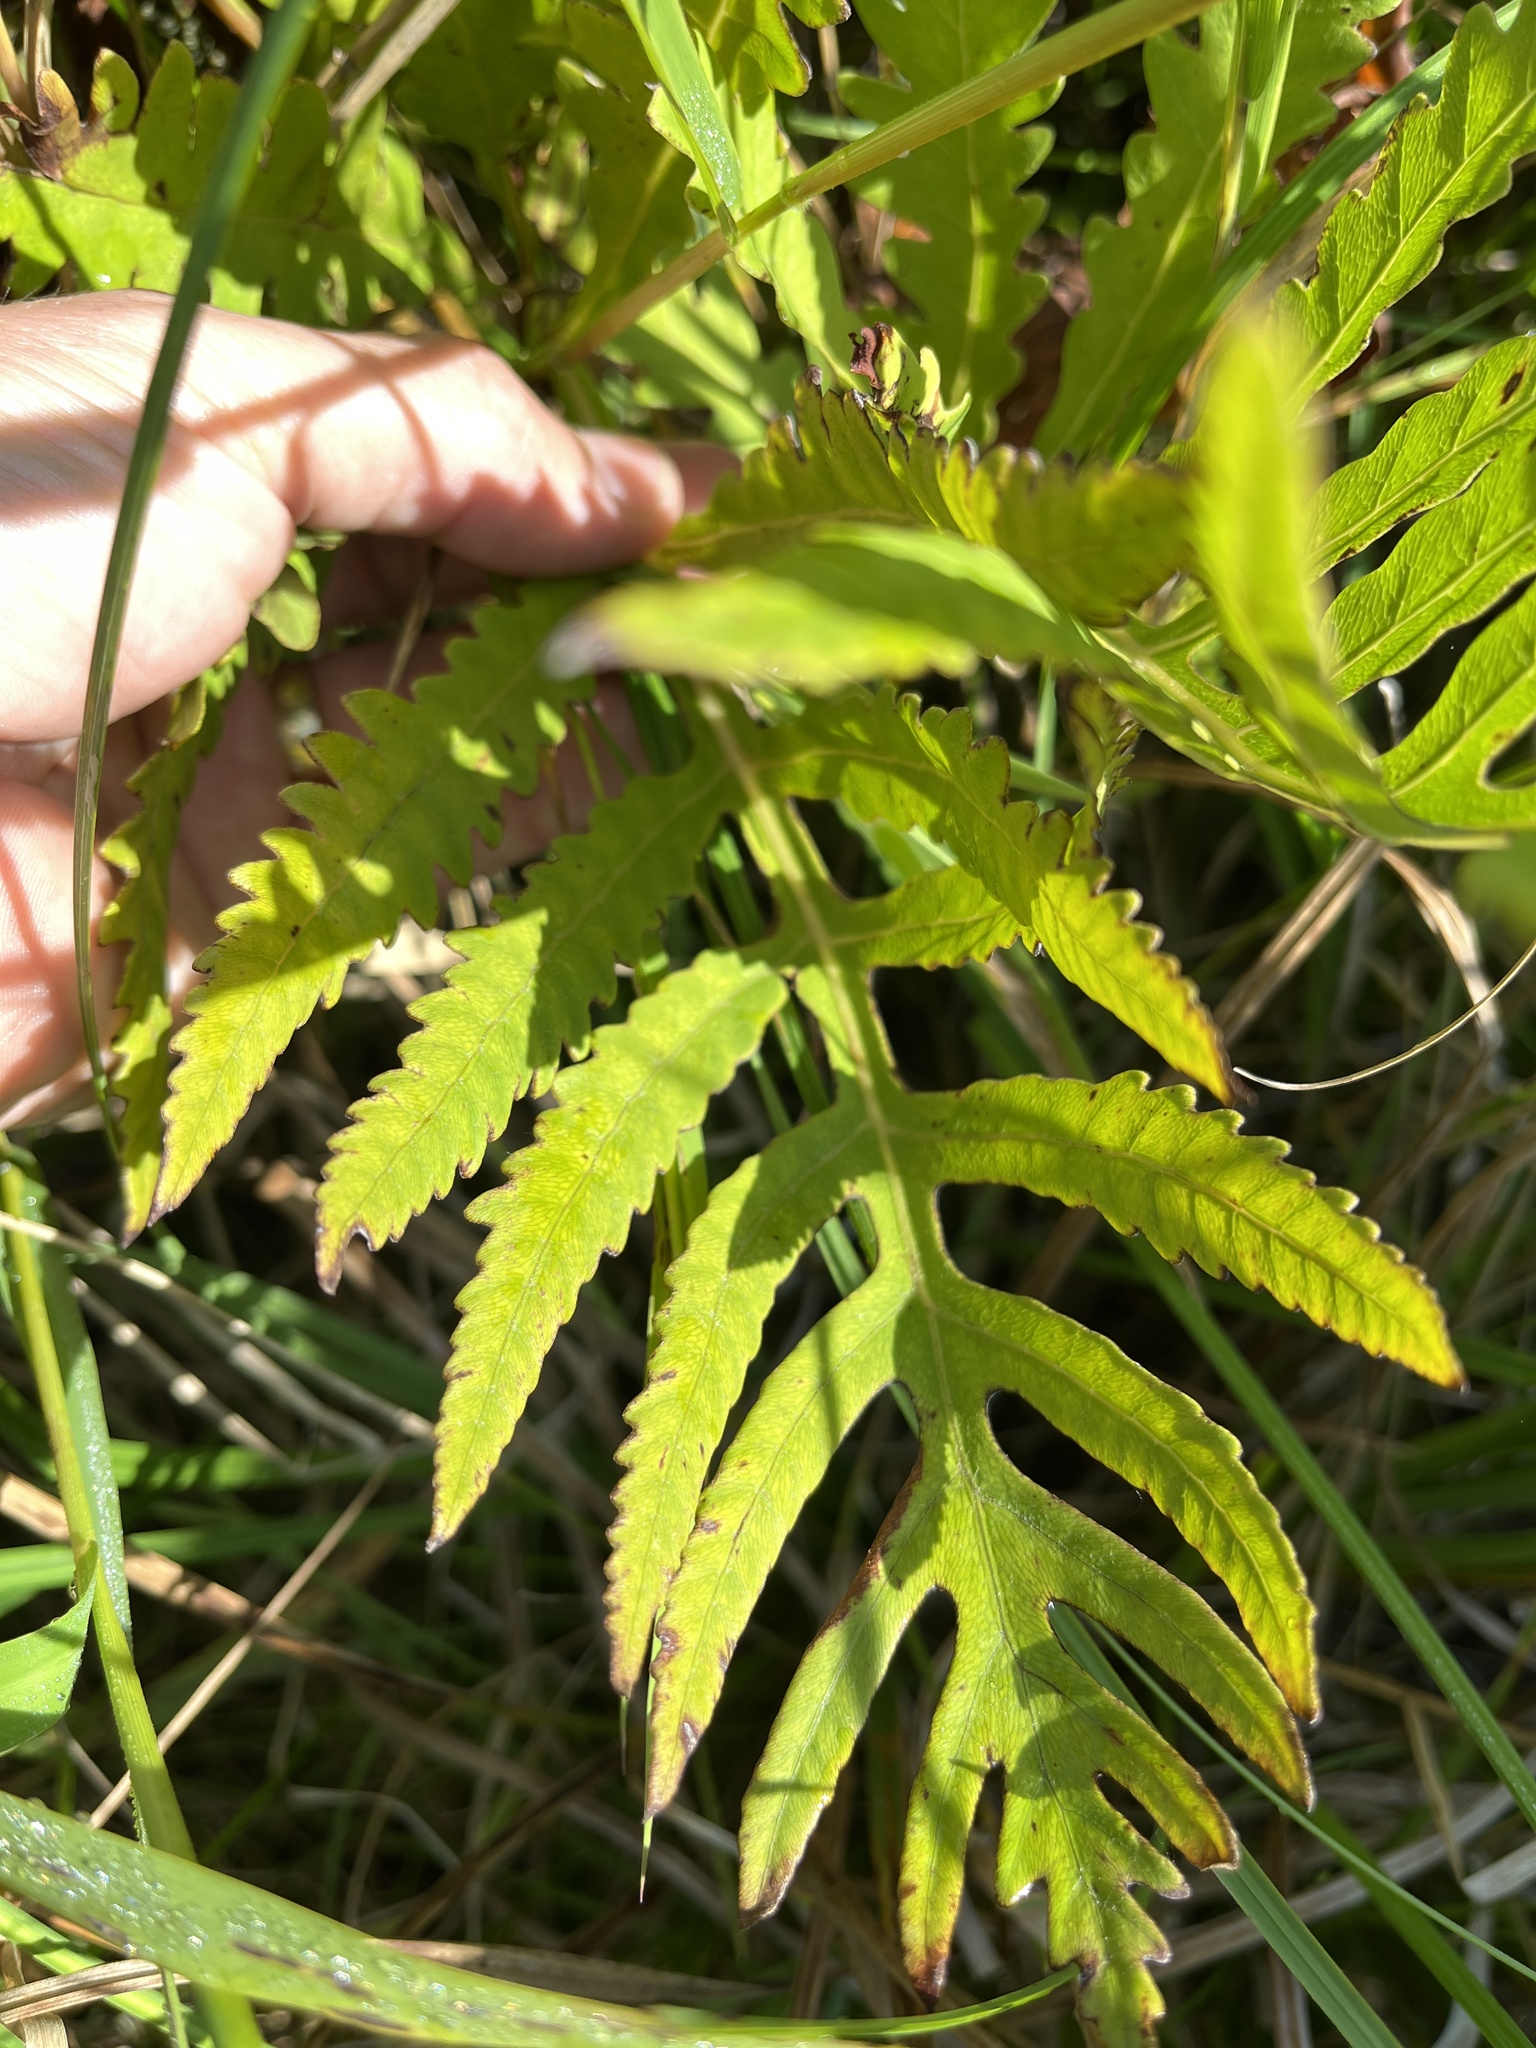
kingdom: Plantae
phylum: Tracheophyta
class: Polypodiopsida
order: Polypodiales
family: Onocleaceae
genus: Onoclea
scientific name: Onoclea sensibilis
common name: Sensitive fern
